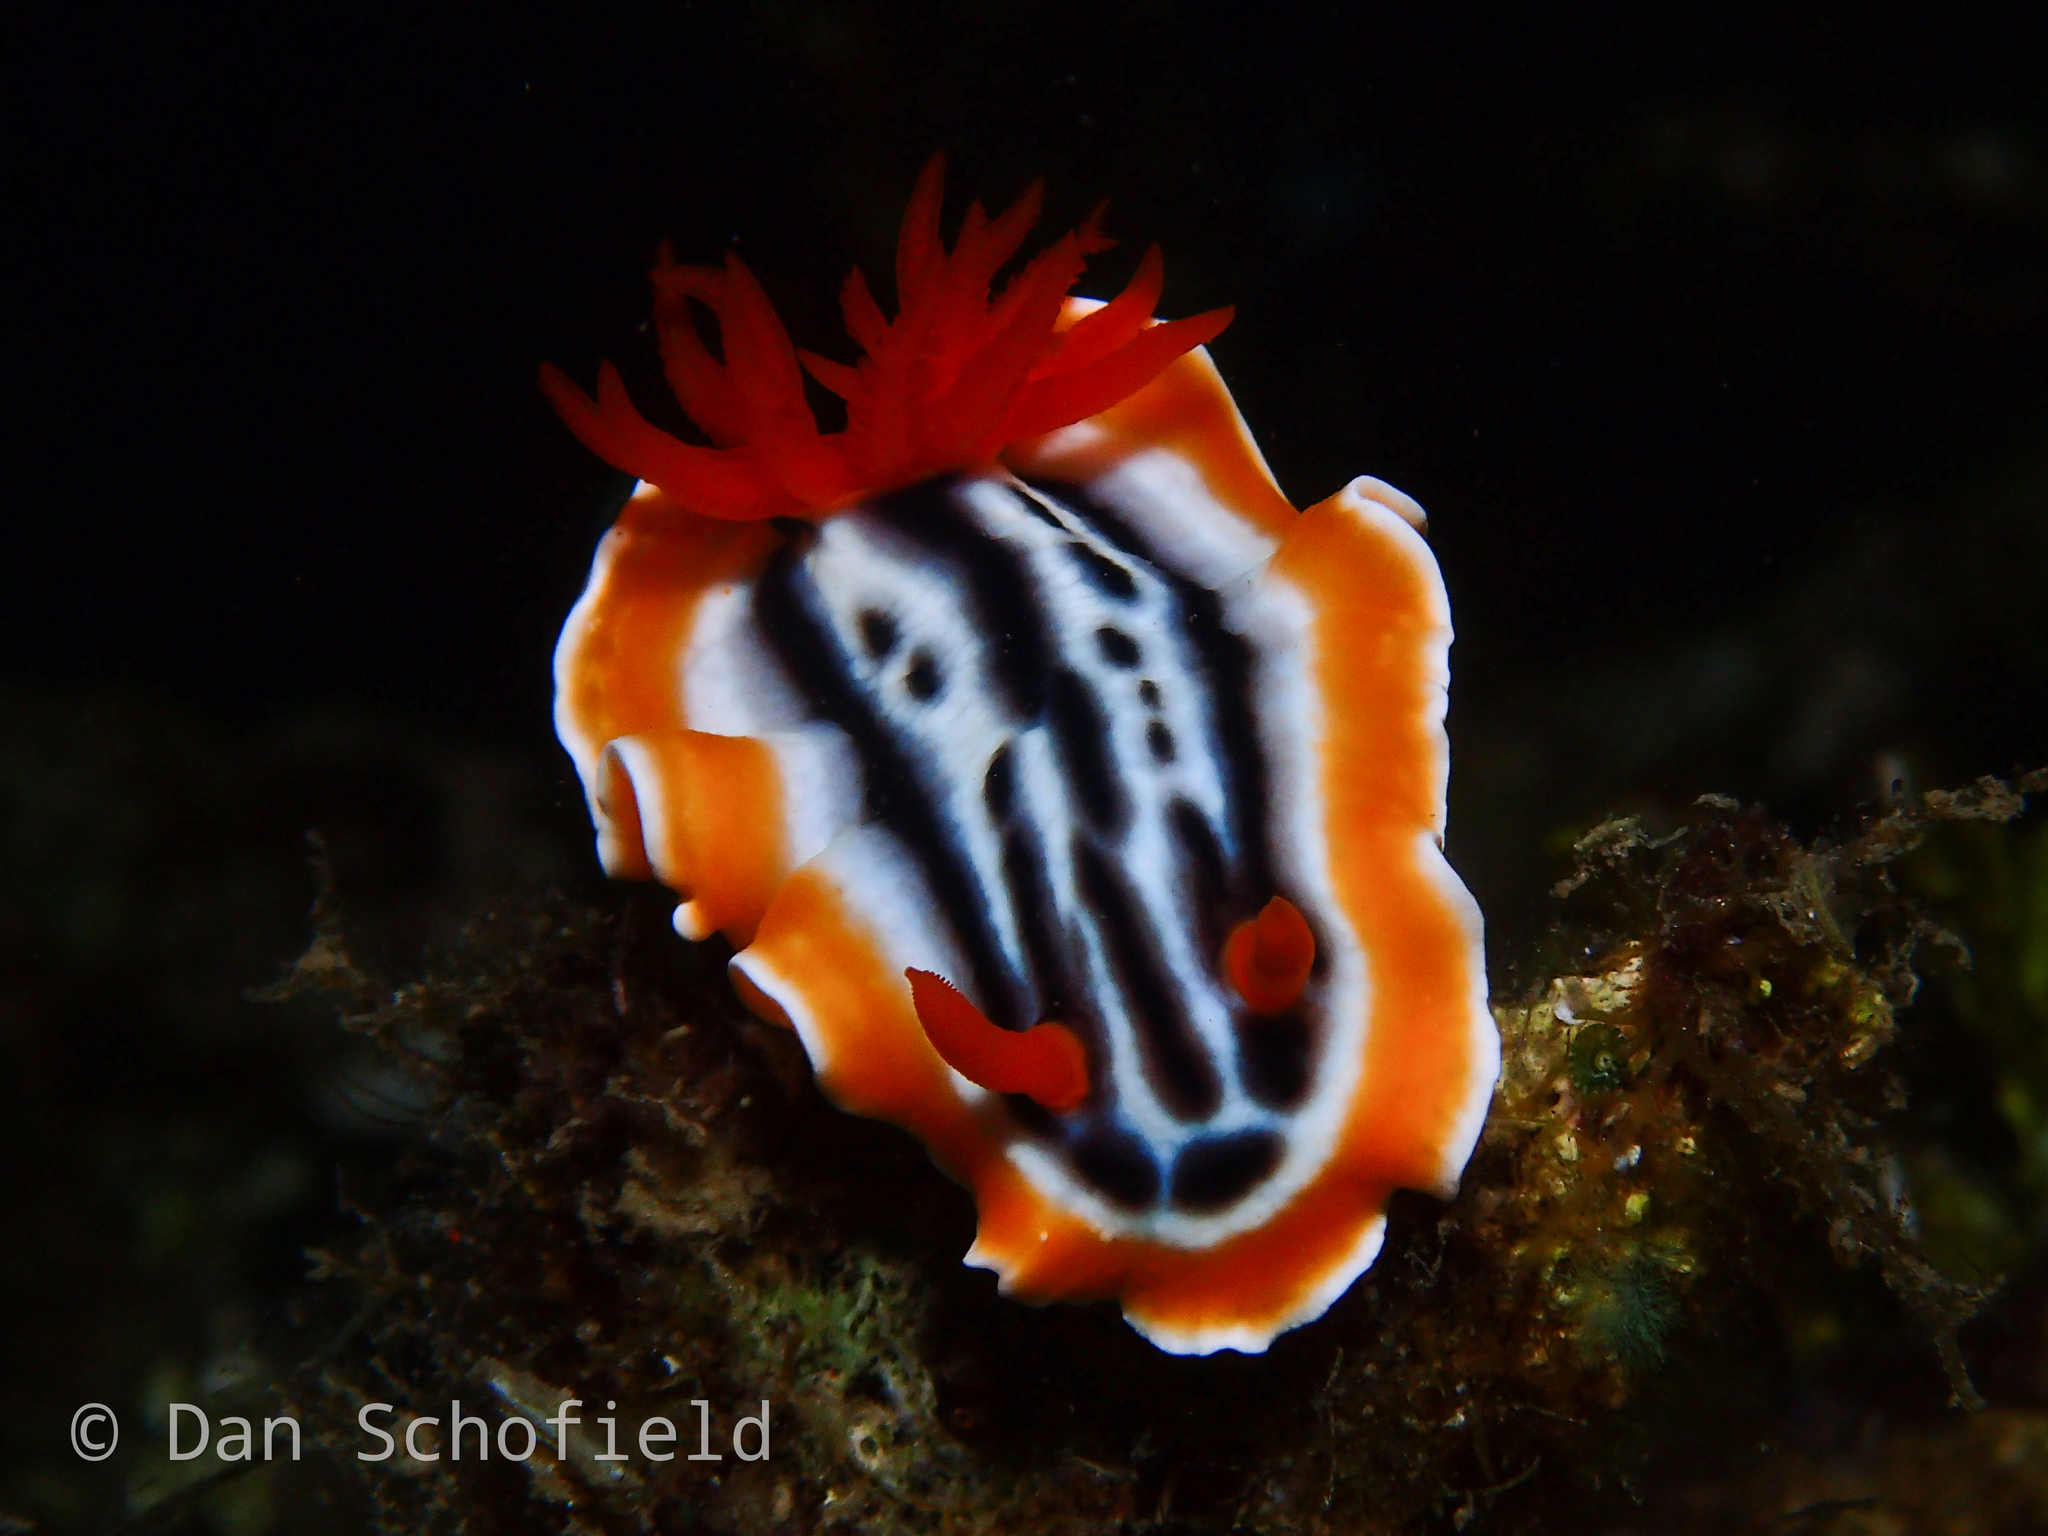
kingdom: Animalia
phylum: Mollusca
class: Gastropoda
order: Nudibranchia
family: Chromodorididae
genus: Chromodoris
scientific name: Chromodoris magnifica
